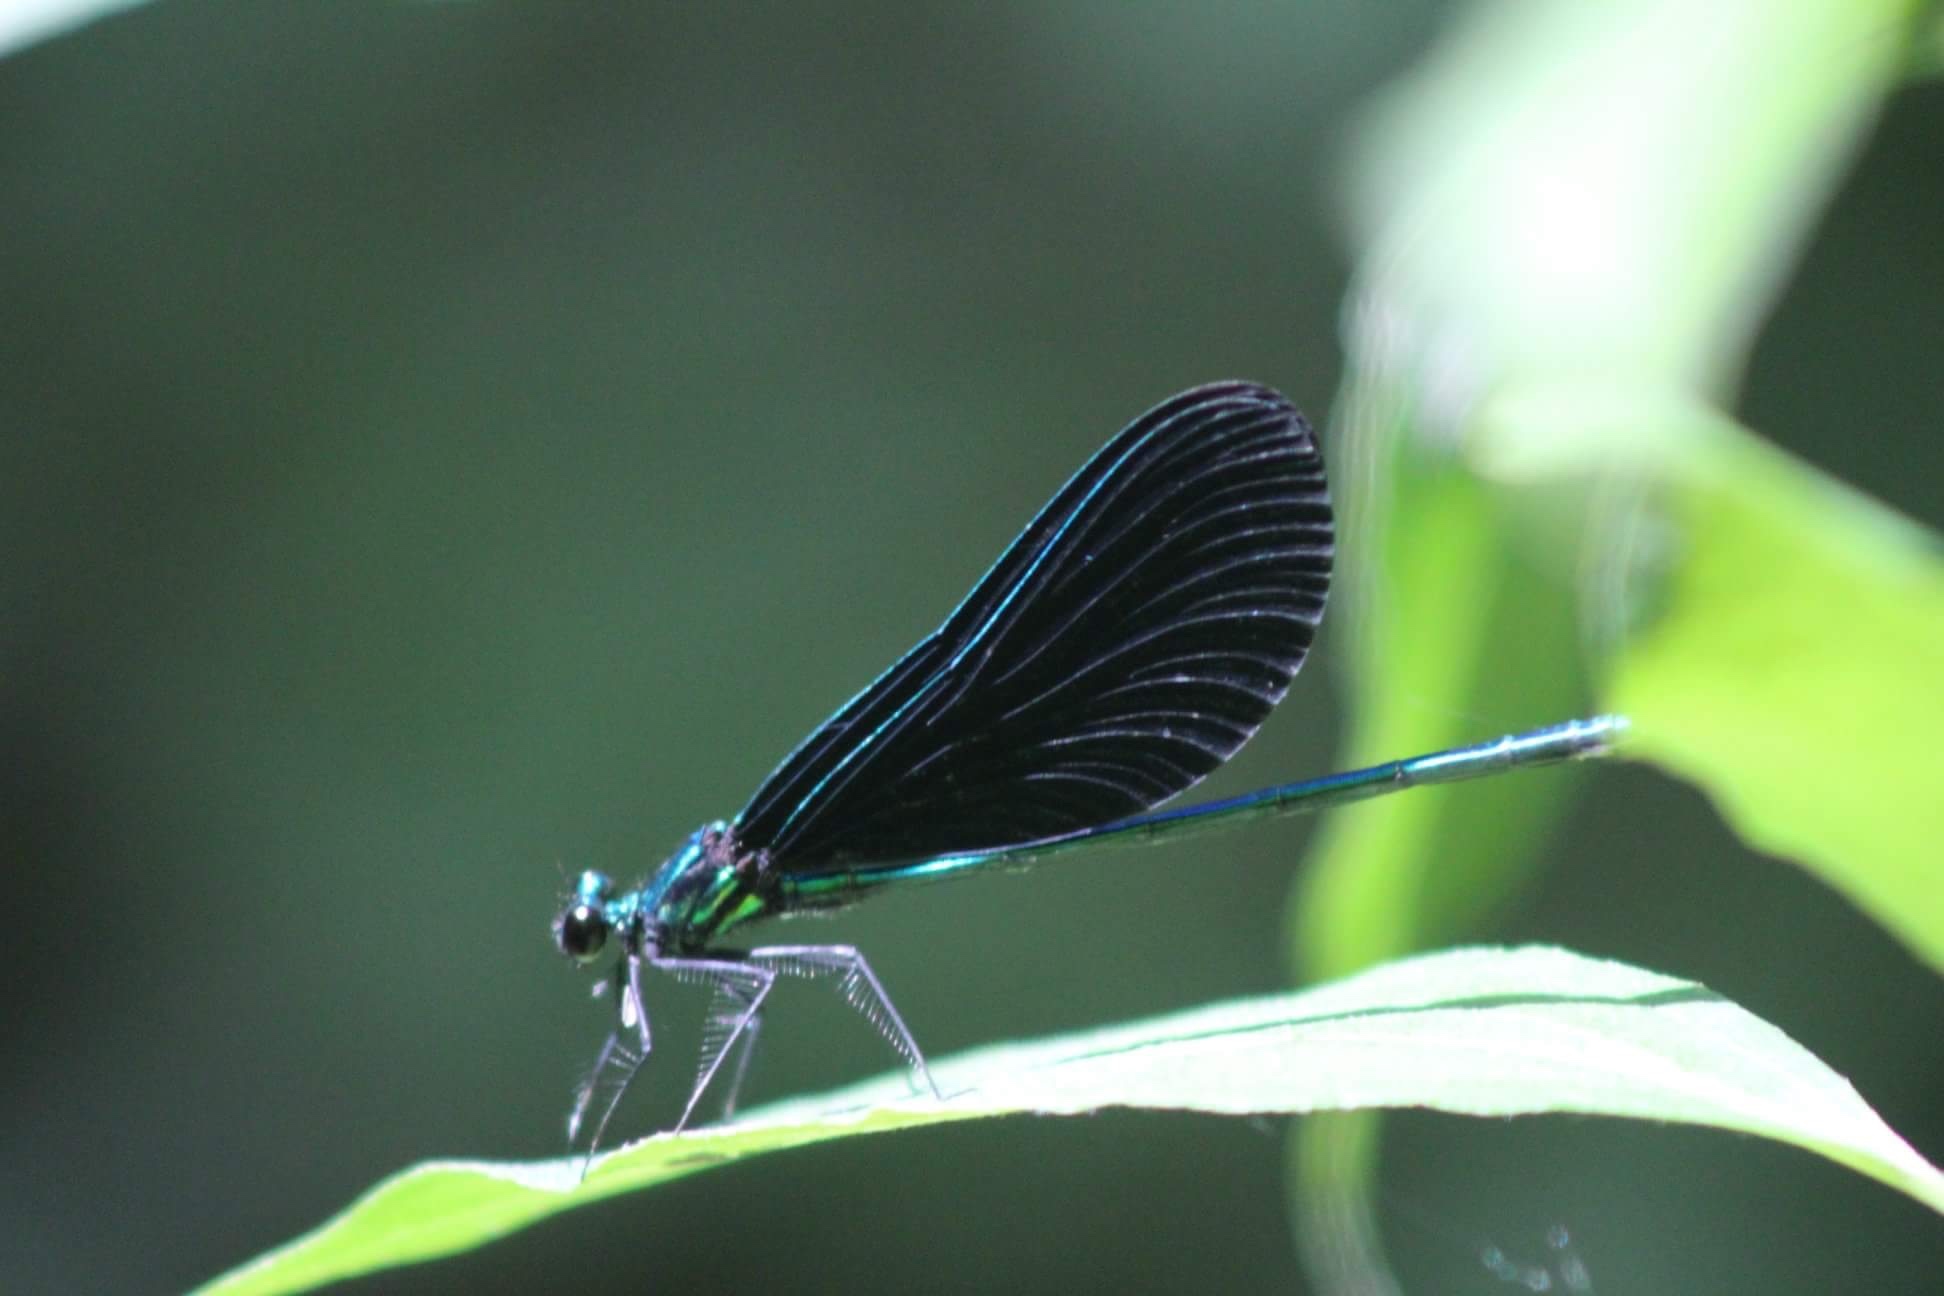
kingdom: Animalia
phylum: Arthropoda
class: Insecta
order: Odonata
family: Calopterygidae
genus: Calopteryx
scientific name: Calopteryx maculata
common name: Ebony jewelwing
